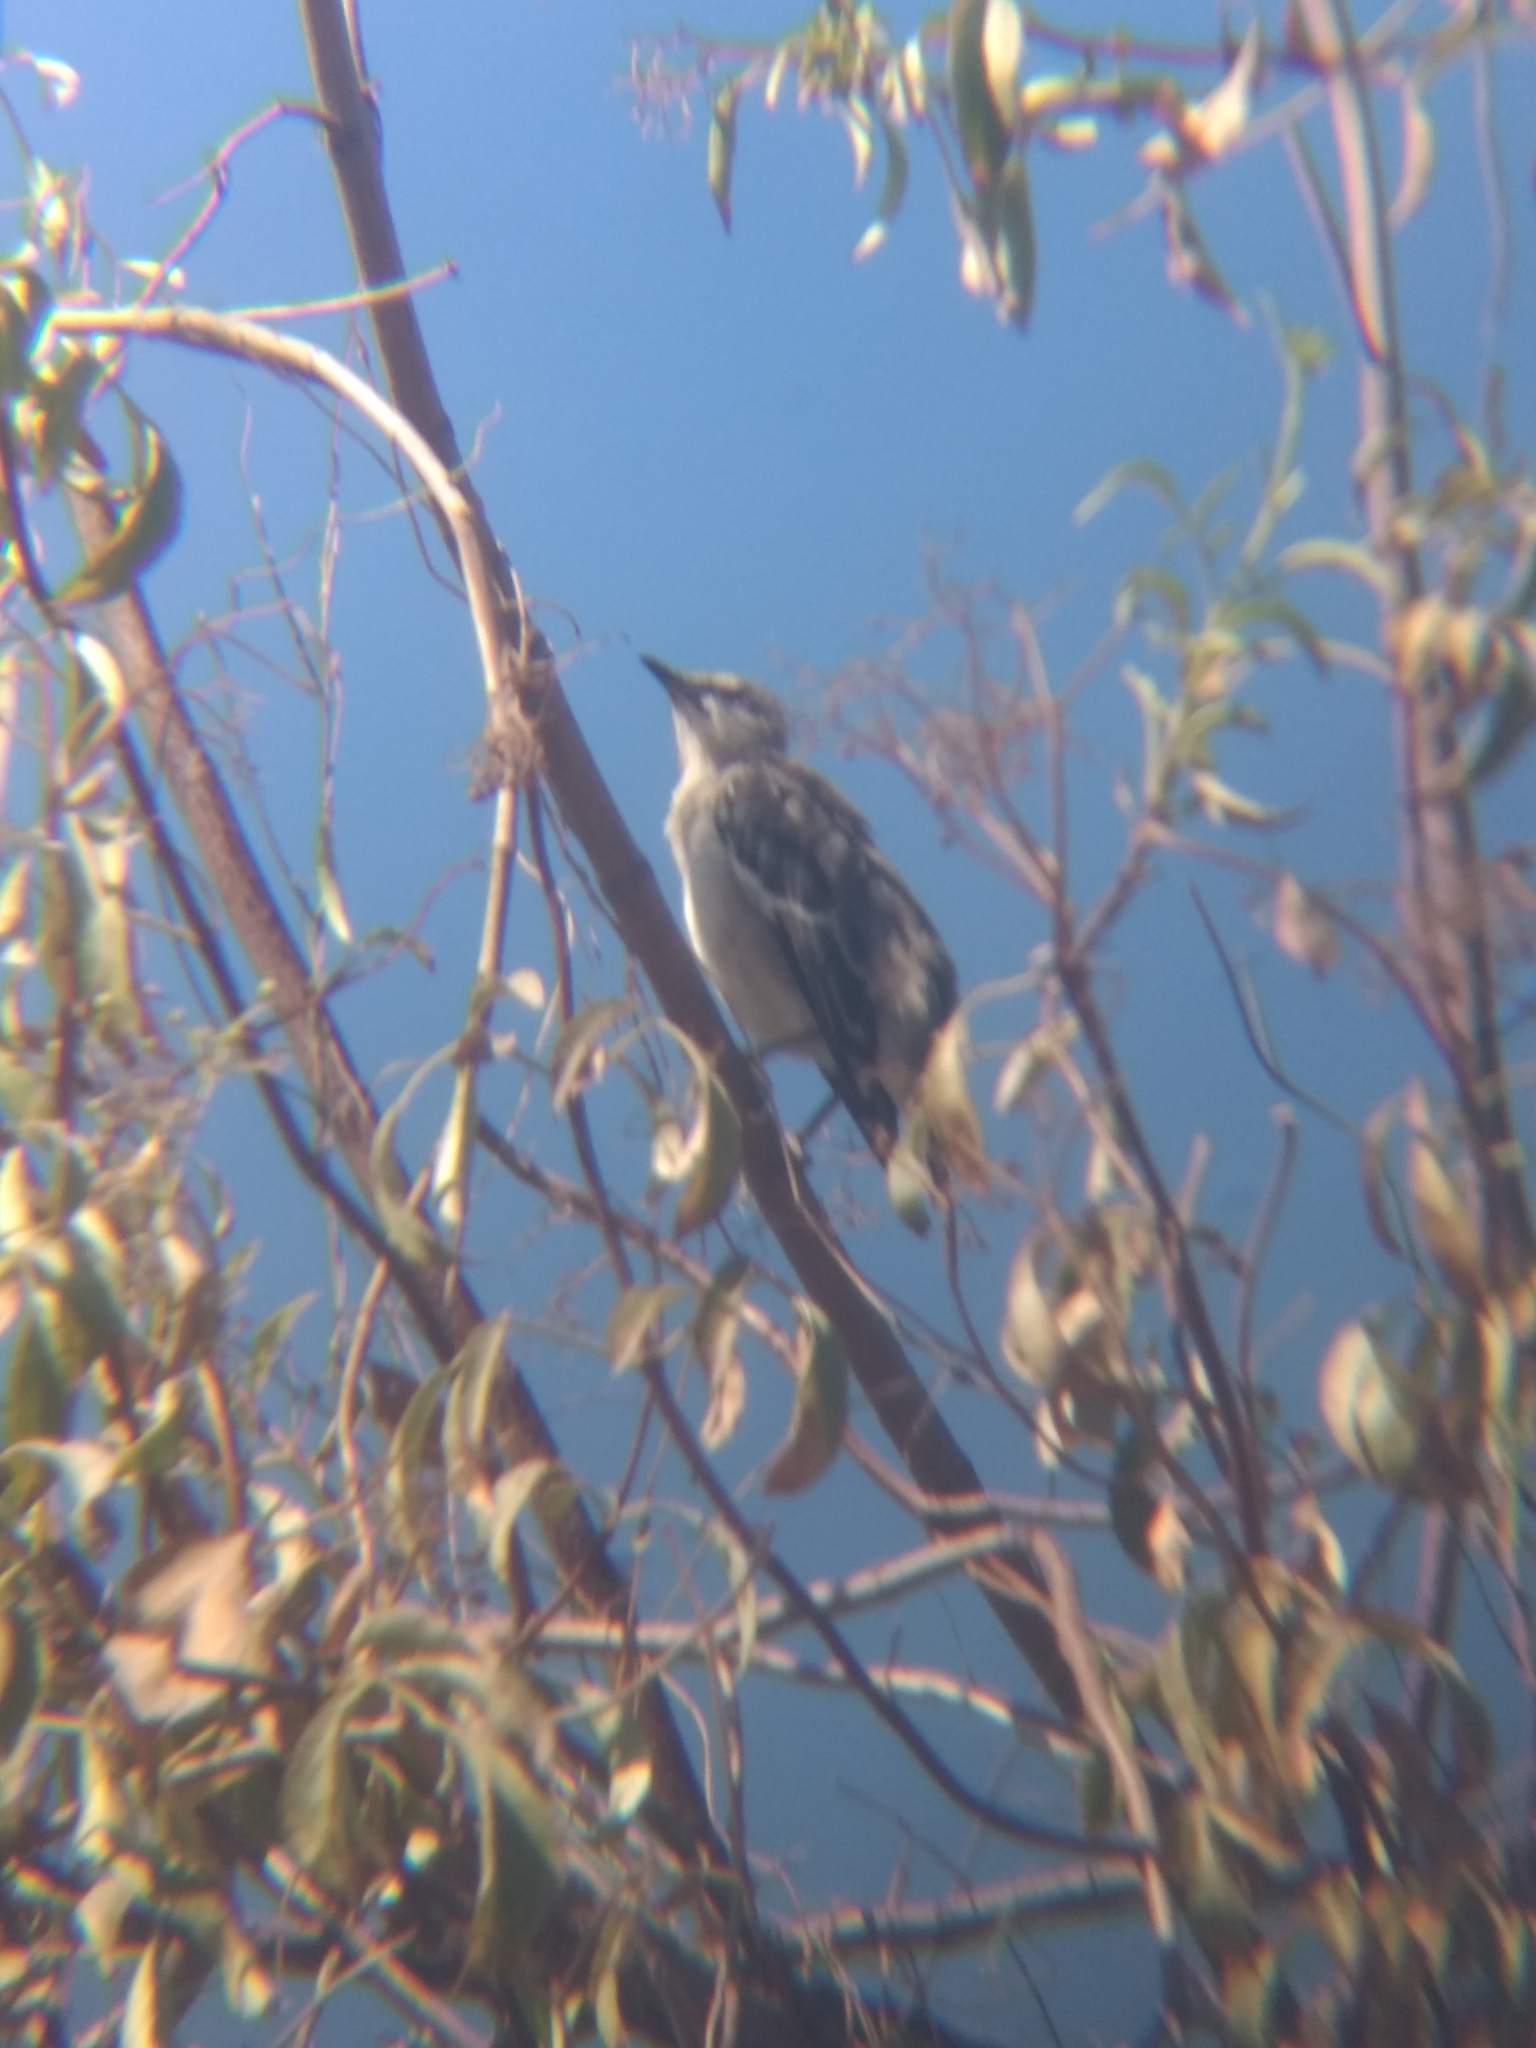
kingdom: Animalia
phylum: Chordata
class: Aves
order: Passeriformes
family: Mimidae
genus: Mimus
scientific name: Mimus polyglottos
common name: Northern mockingbird
